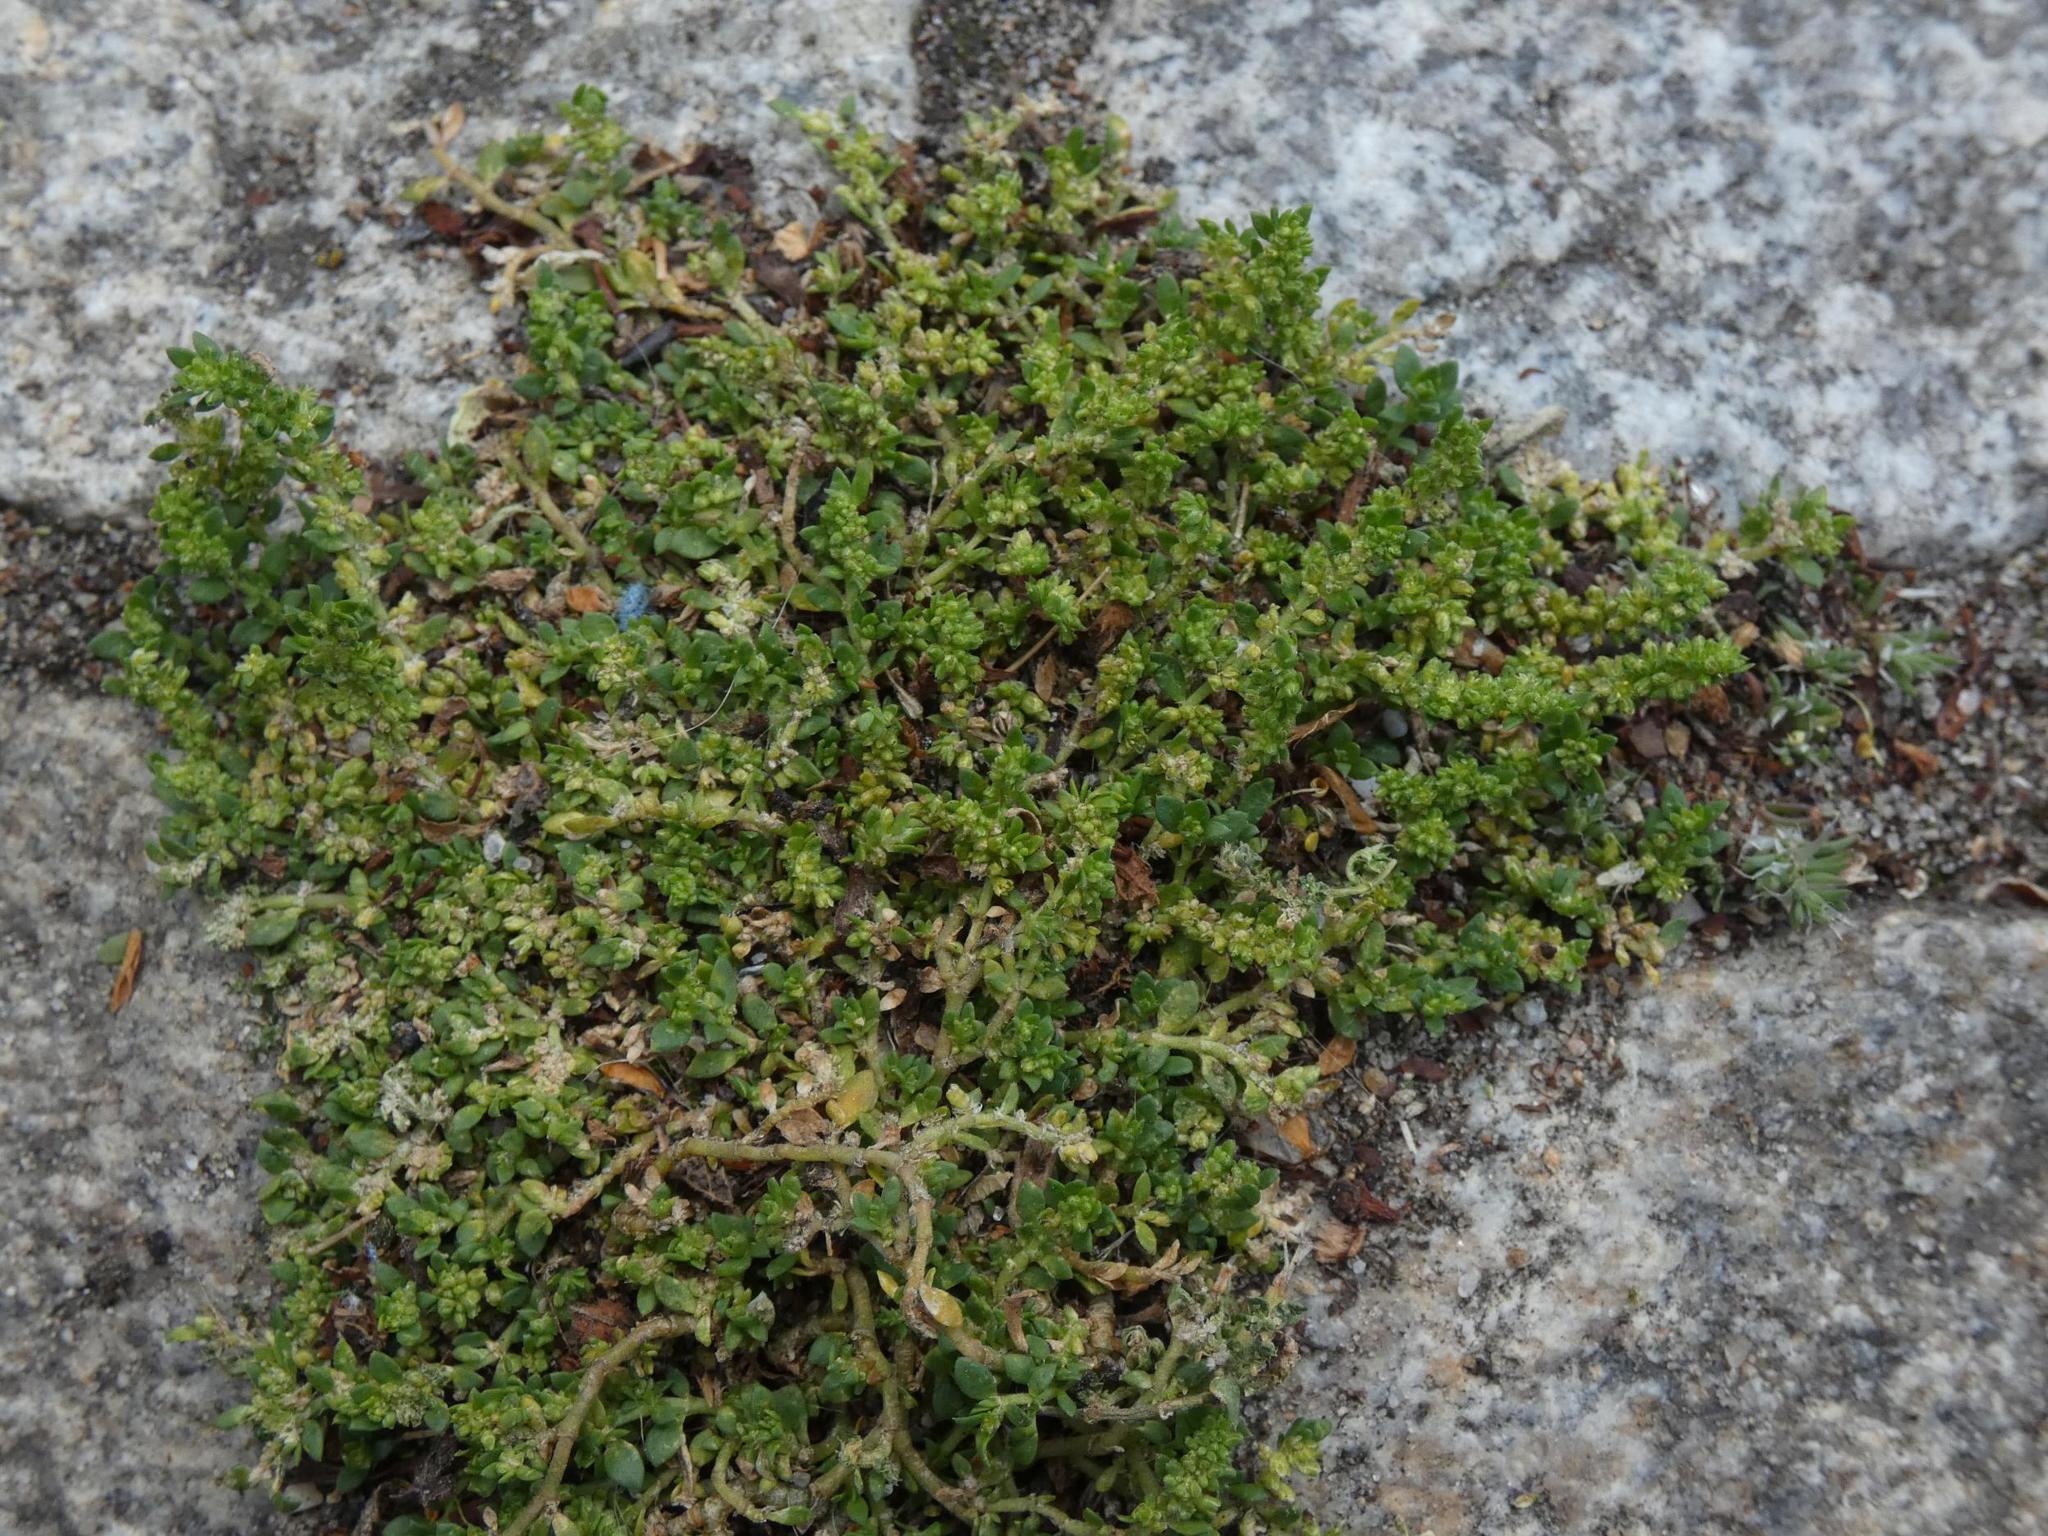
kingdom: Plantae
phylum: Tracheophyta
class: Magnoliopsida
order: Caryophyllales
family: Caryophyllaceae
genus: Herniaria
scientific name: Herniaria glabra
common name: Smooth rupturewort
